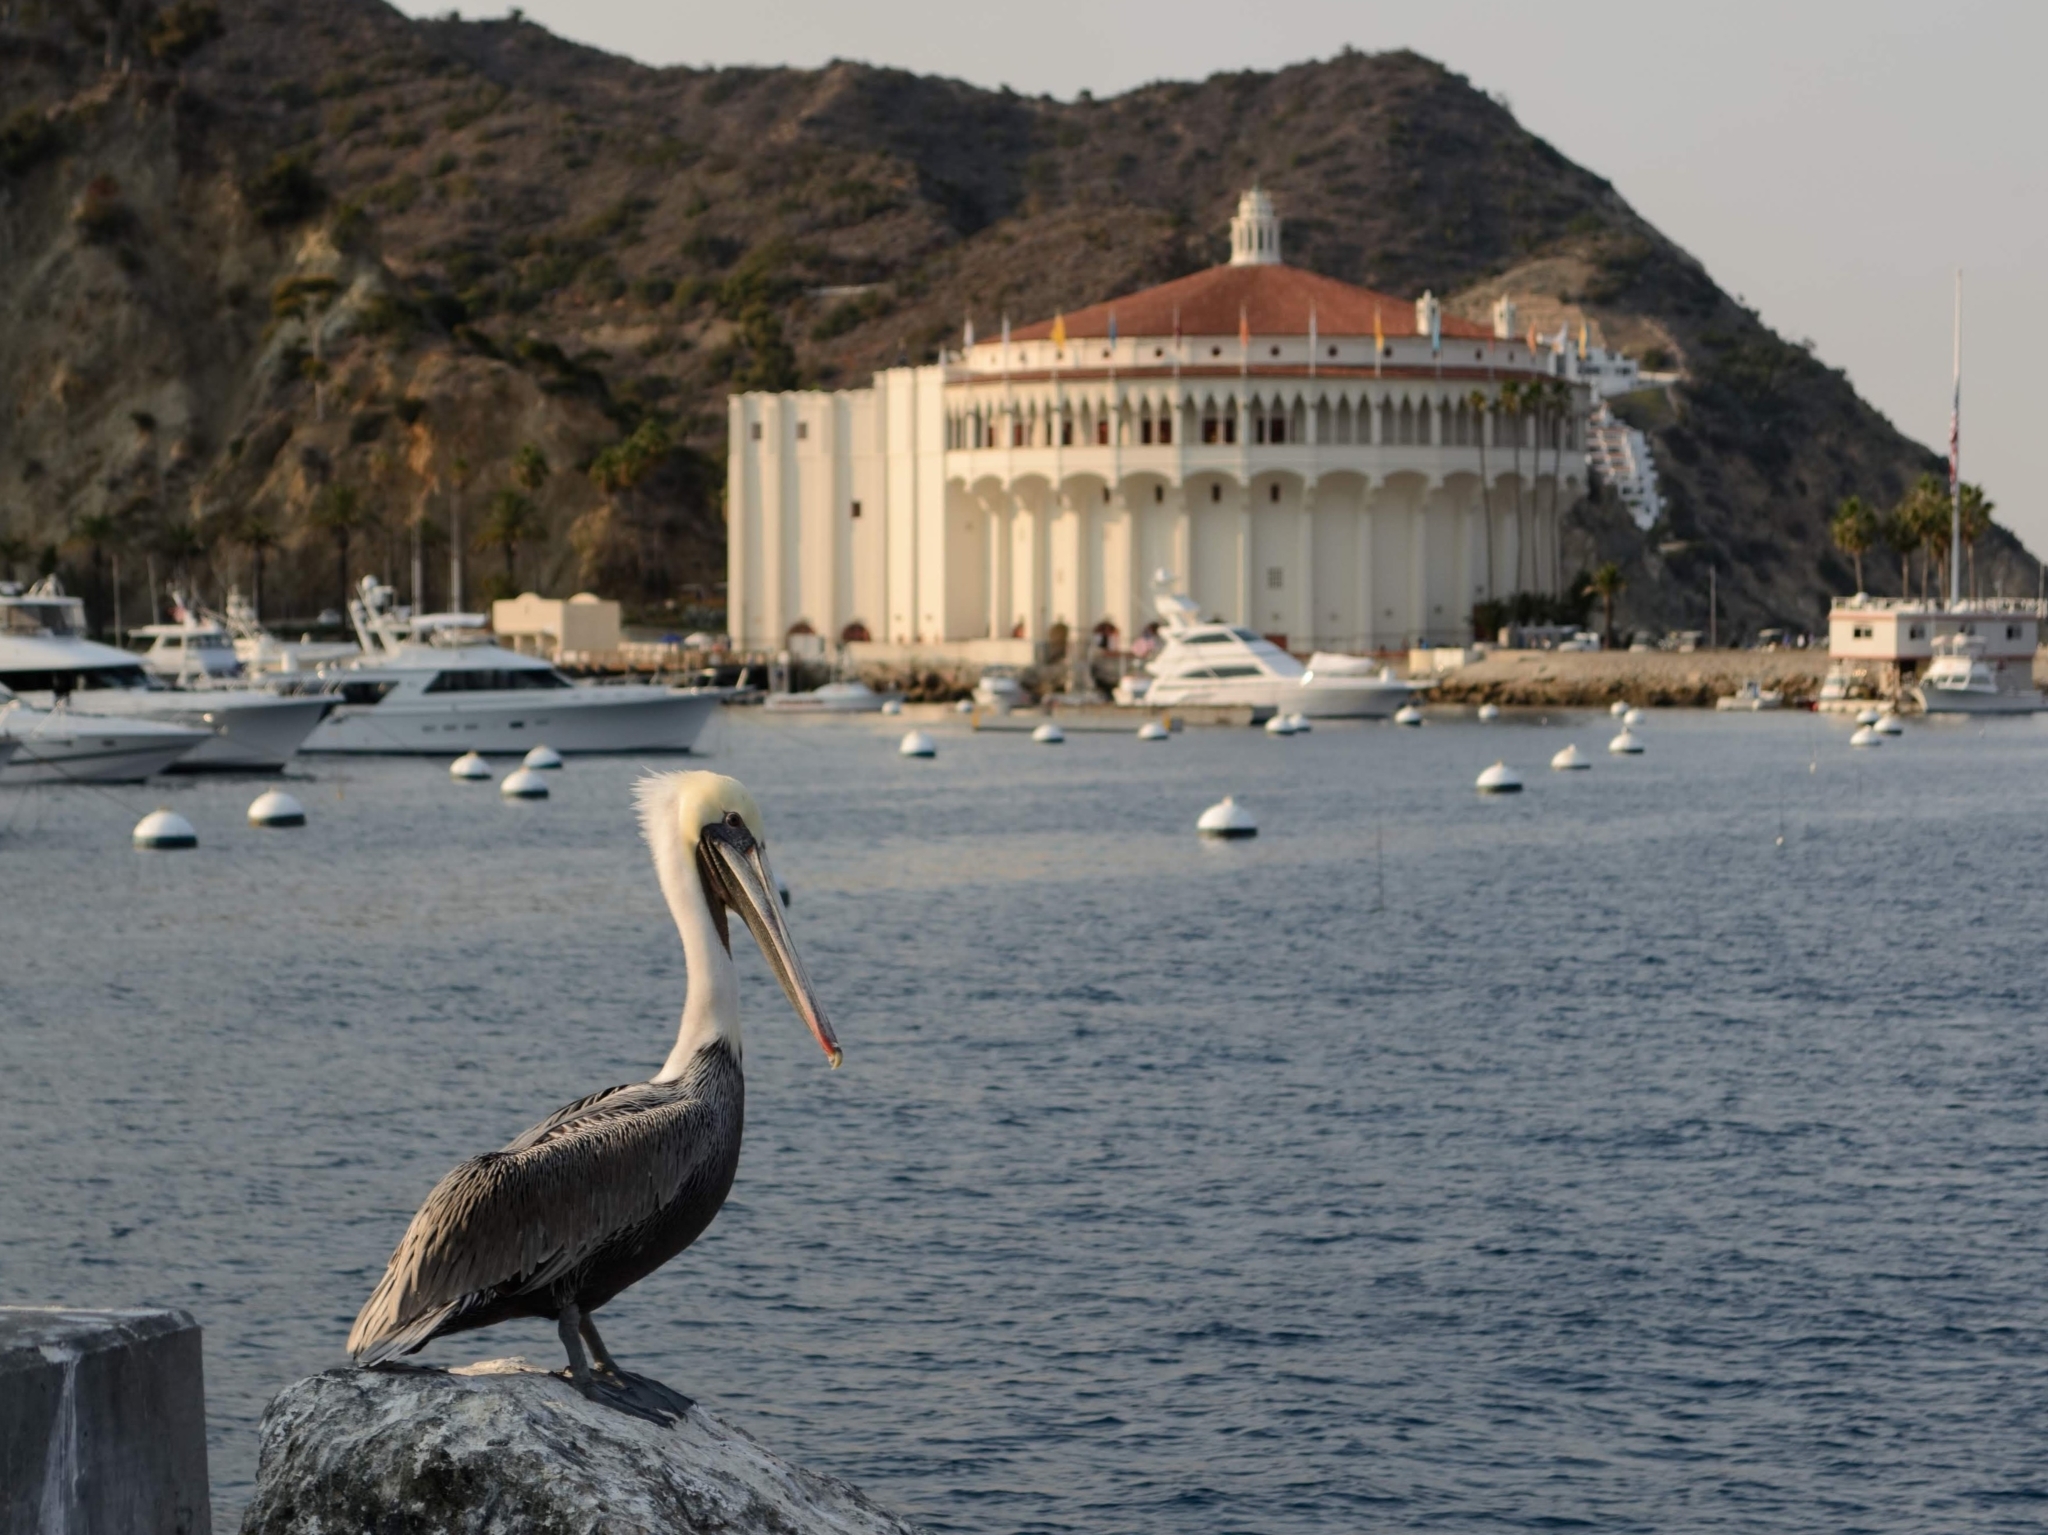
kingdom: Animalia
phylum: Chordata
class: Aves
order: Pelecaniformes
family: Pelecanidae
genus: Pelecanus
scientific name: Pelecanus occidentalis
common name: Brown pelican
